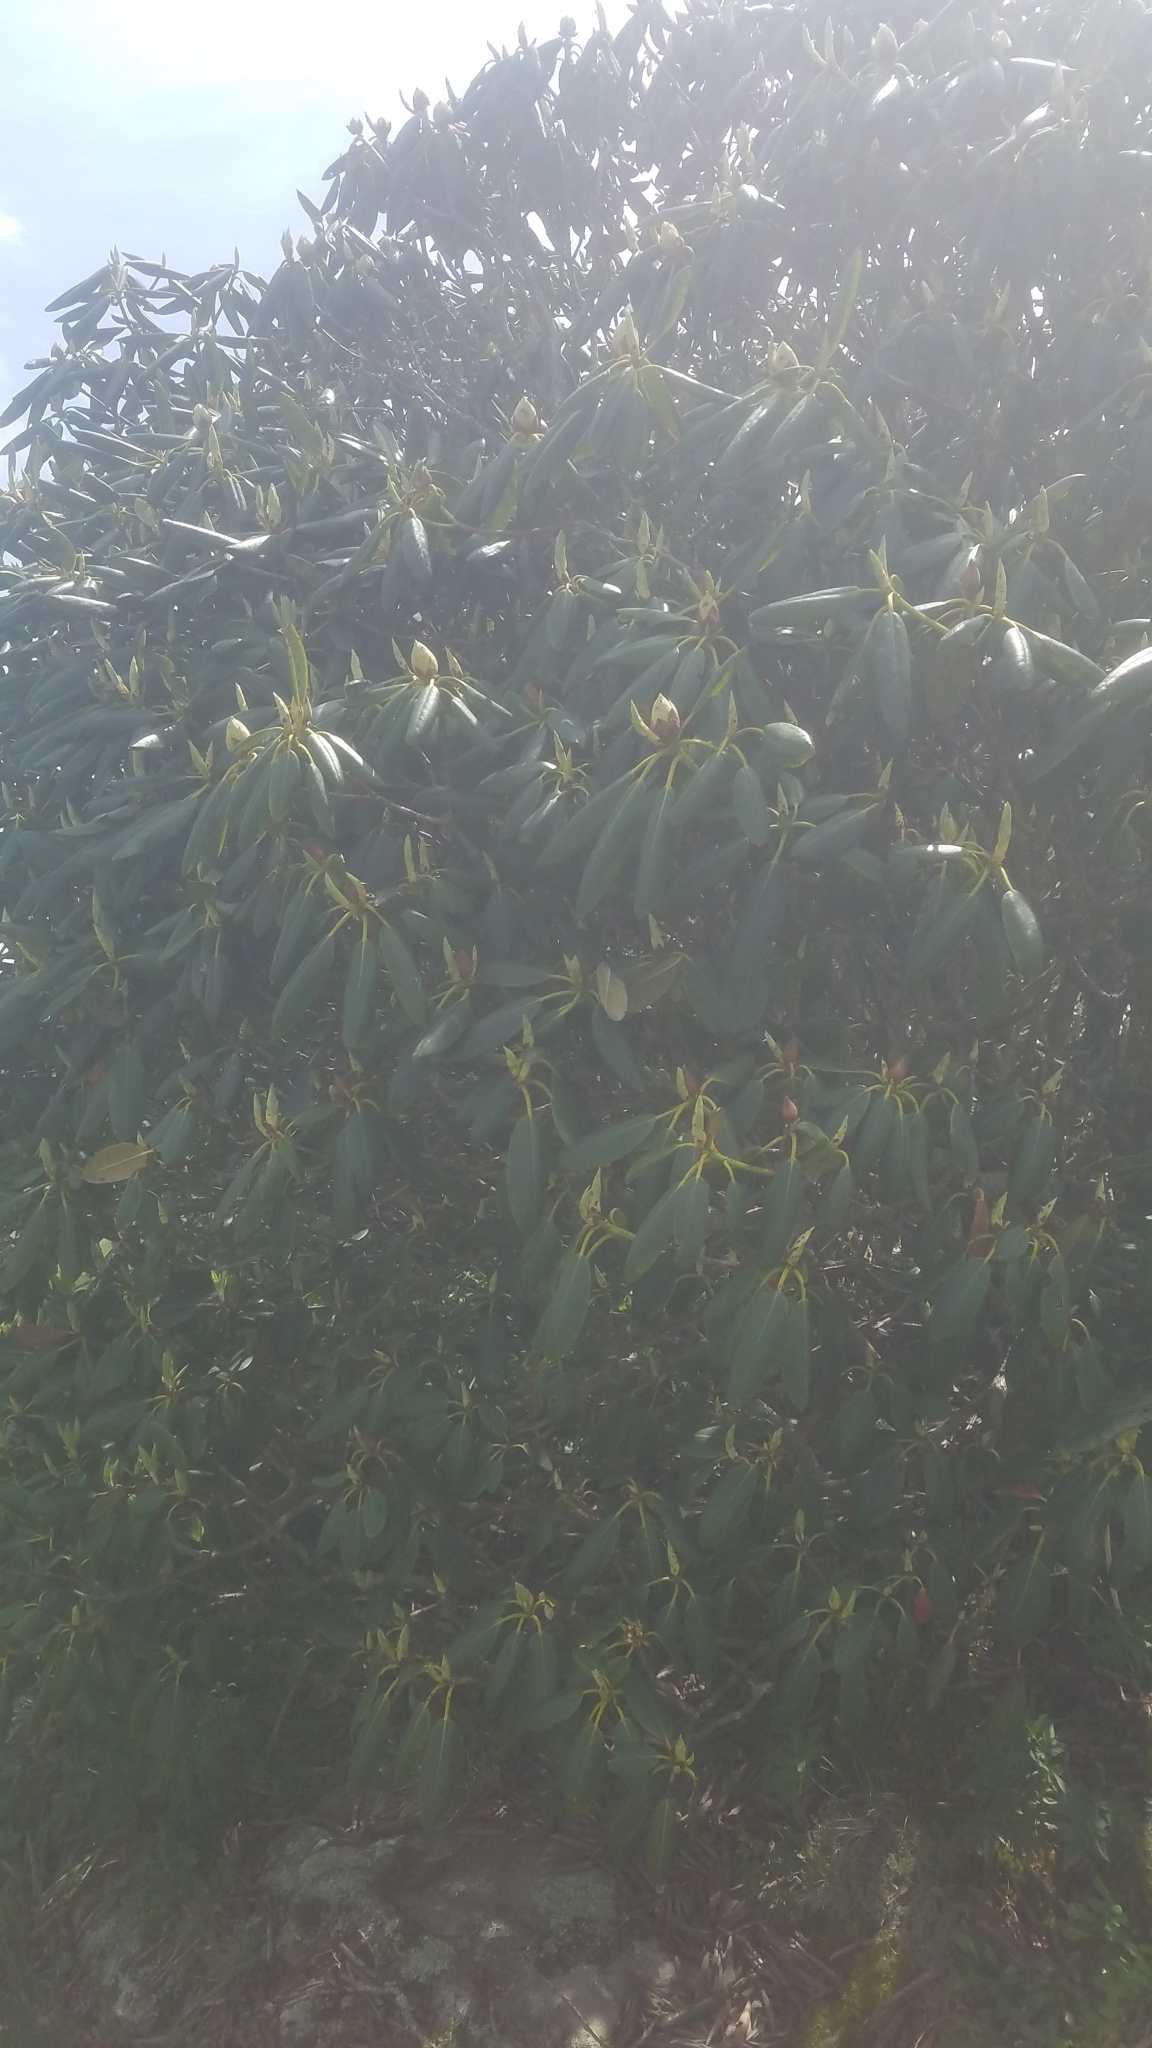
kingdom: Plantae
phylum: Tracheophyta
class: Magnoliopsida
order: Ericales
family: Ericaceae
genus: Rhododendron
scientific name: Rhododendron catawbiense
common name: Catawba rhododendron
